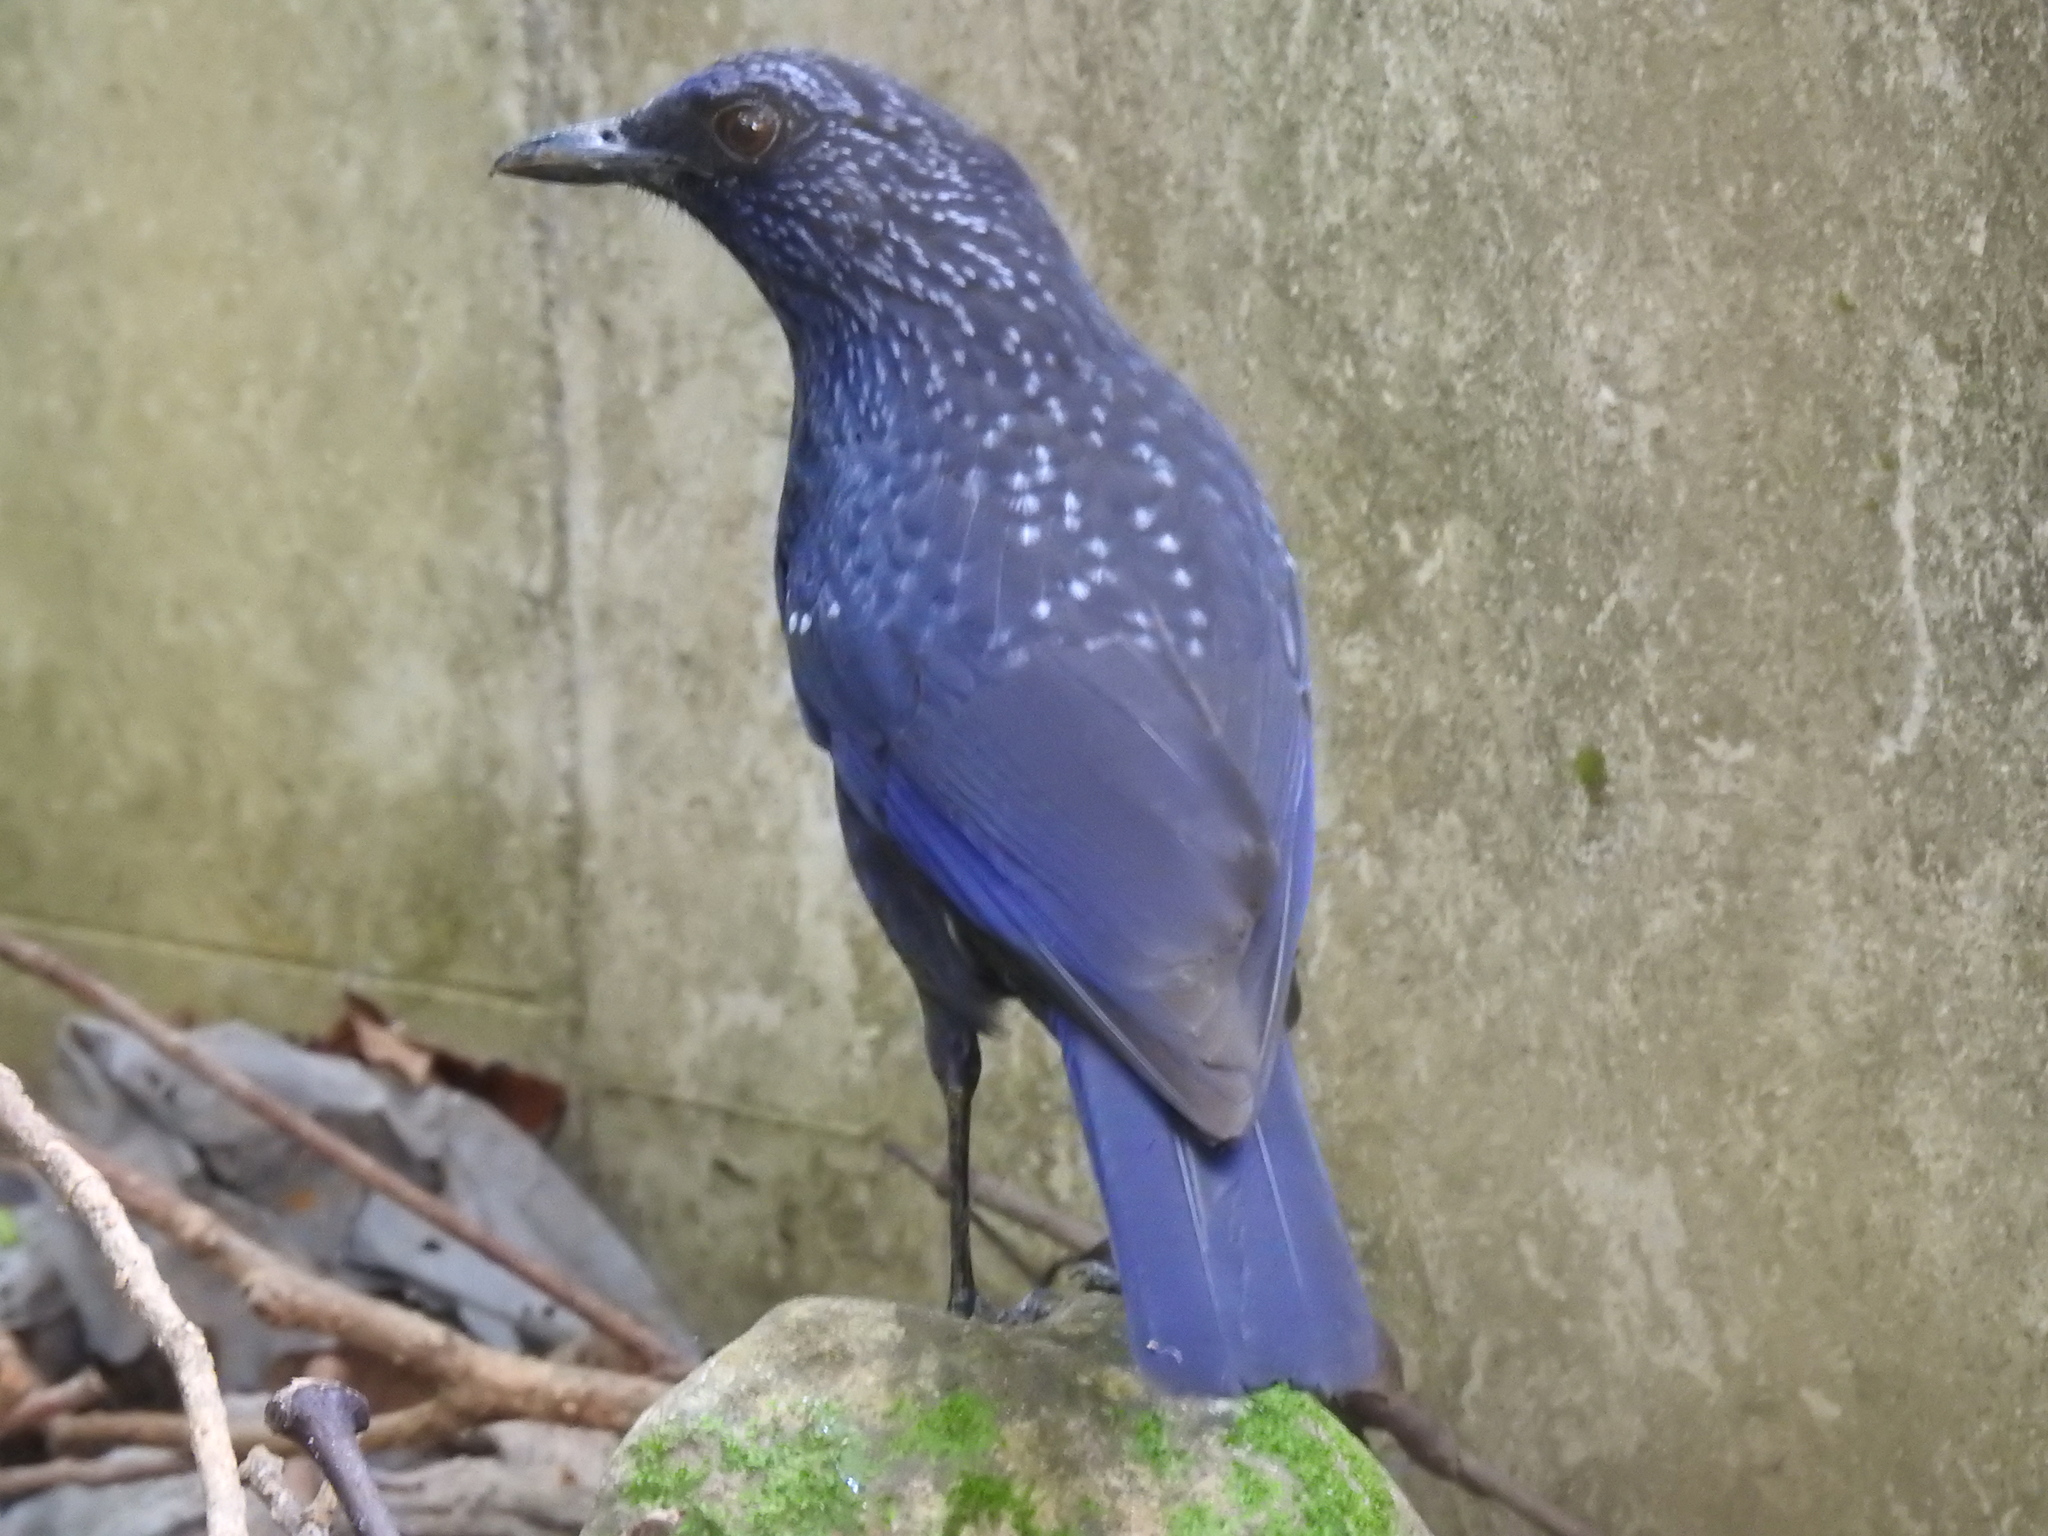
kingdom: Animalia
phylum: Chordata
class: Aves
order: Passeriformes
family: Muscicapidae
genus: Myophonus
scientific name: Myophonus caeruleus
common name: Blue whistling-thrush
